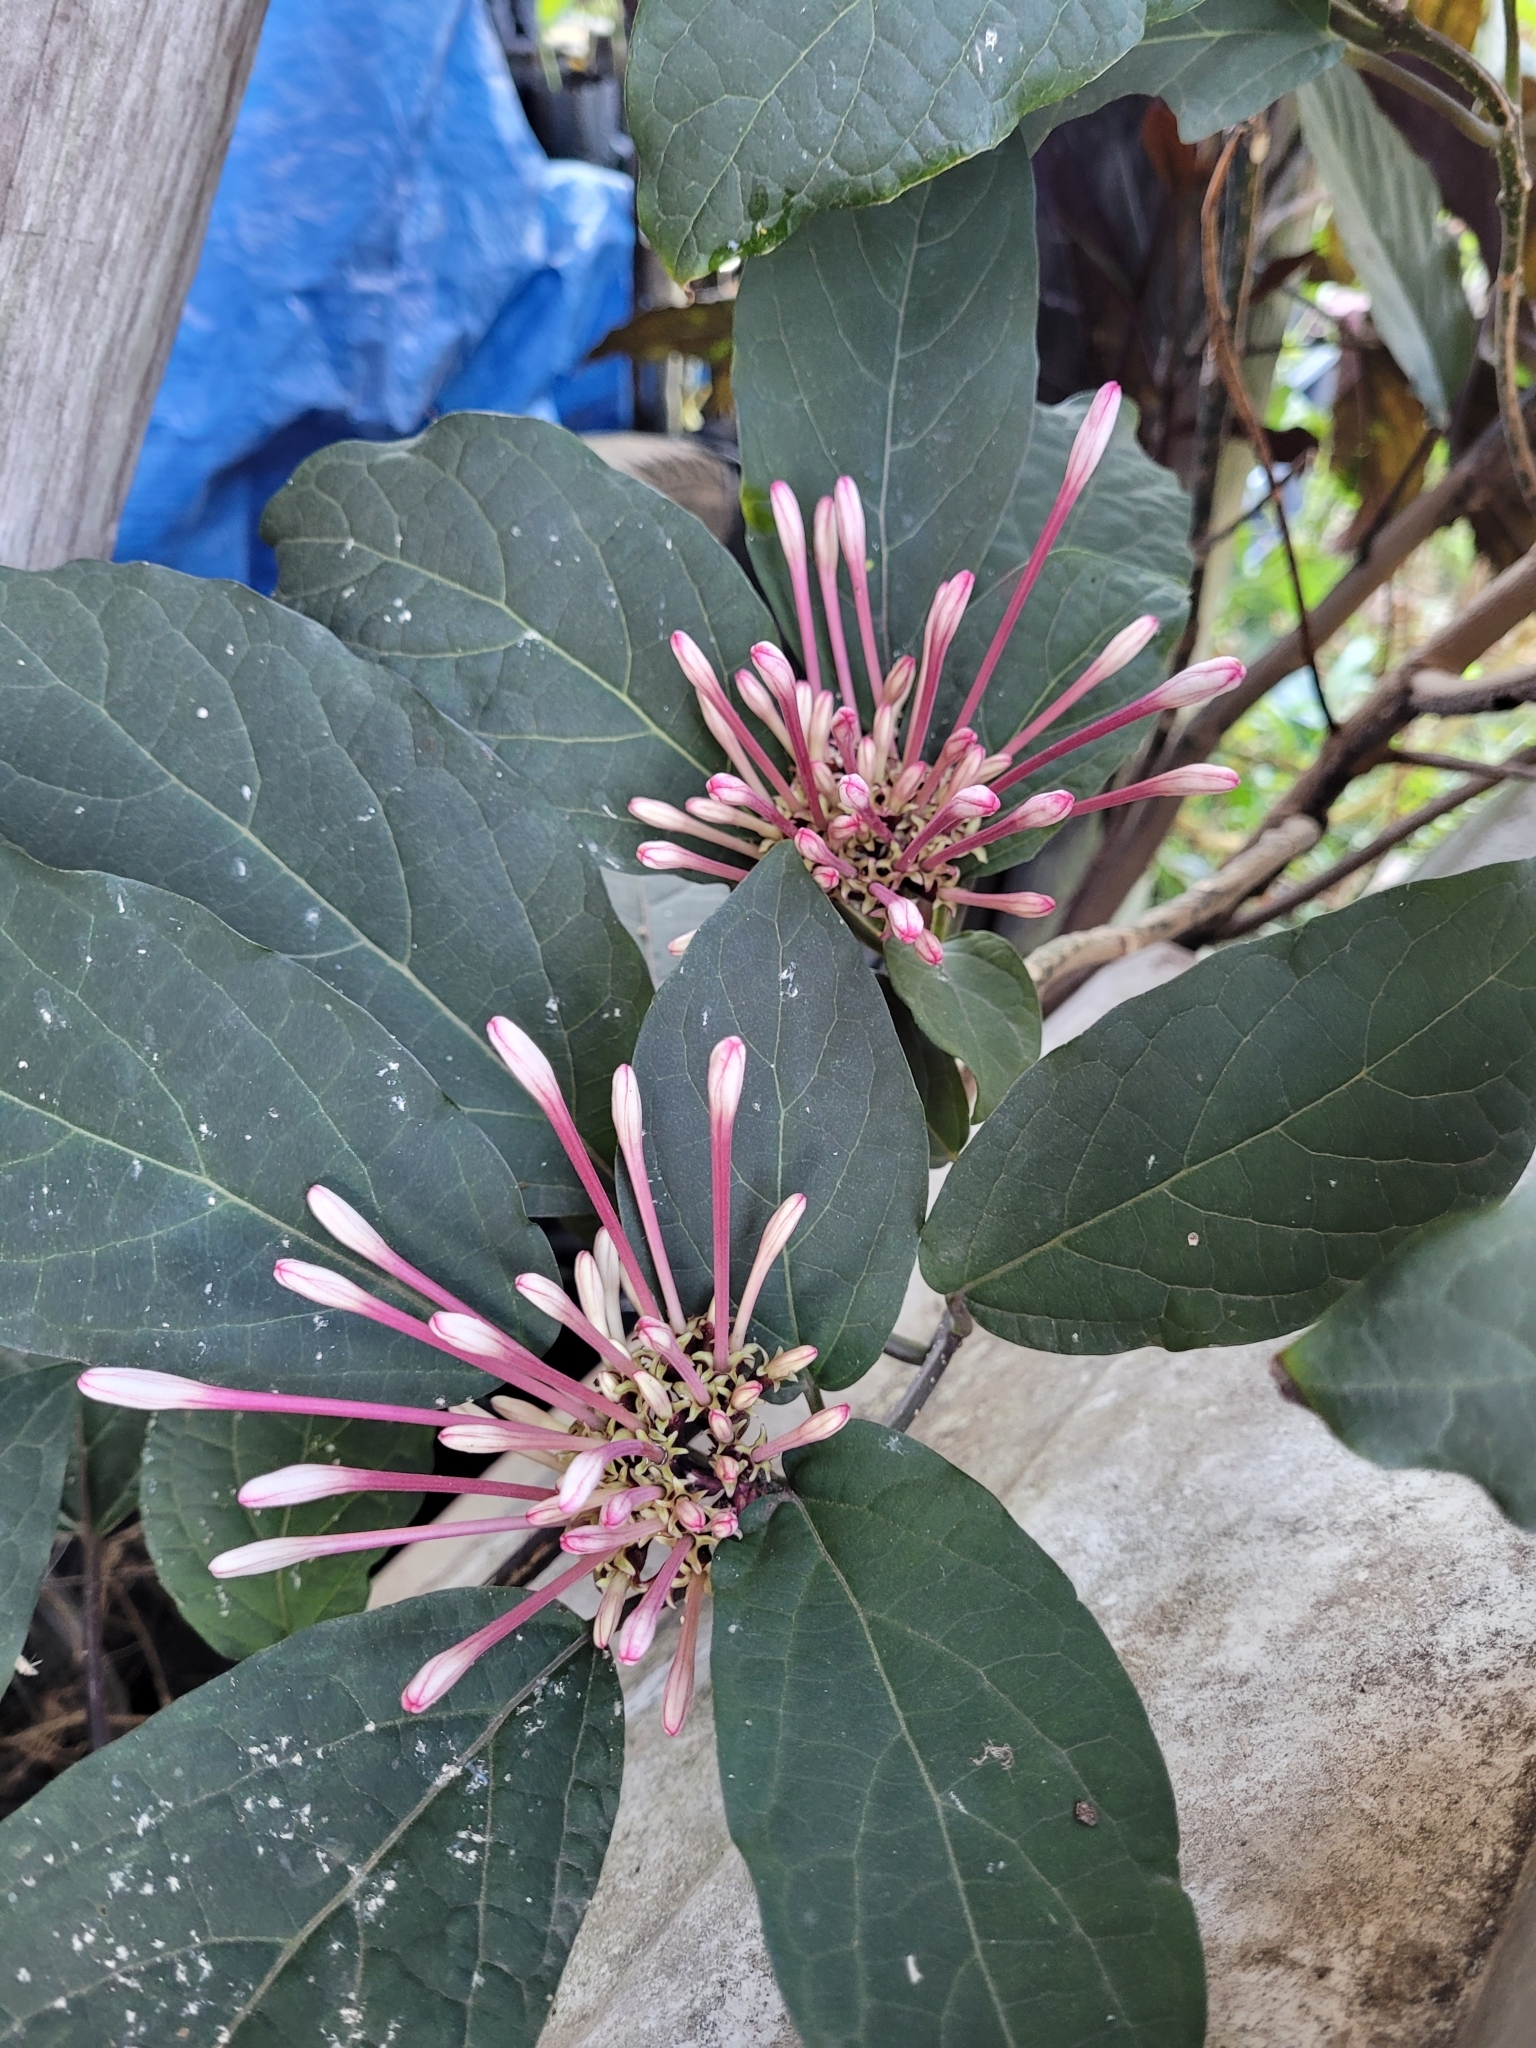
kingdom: Plantae
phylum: Tracheophyta
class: Magnoliopsida
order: Lamiales
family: Lamiaceae
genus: Clerodendrum
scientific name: Clerodendrum quadriloculare
